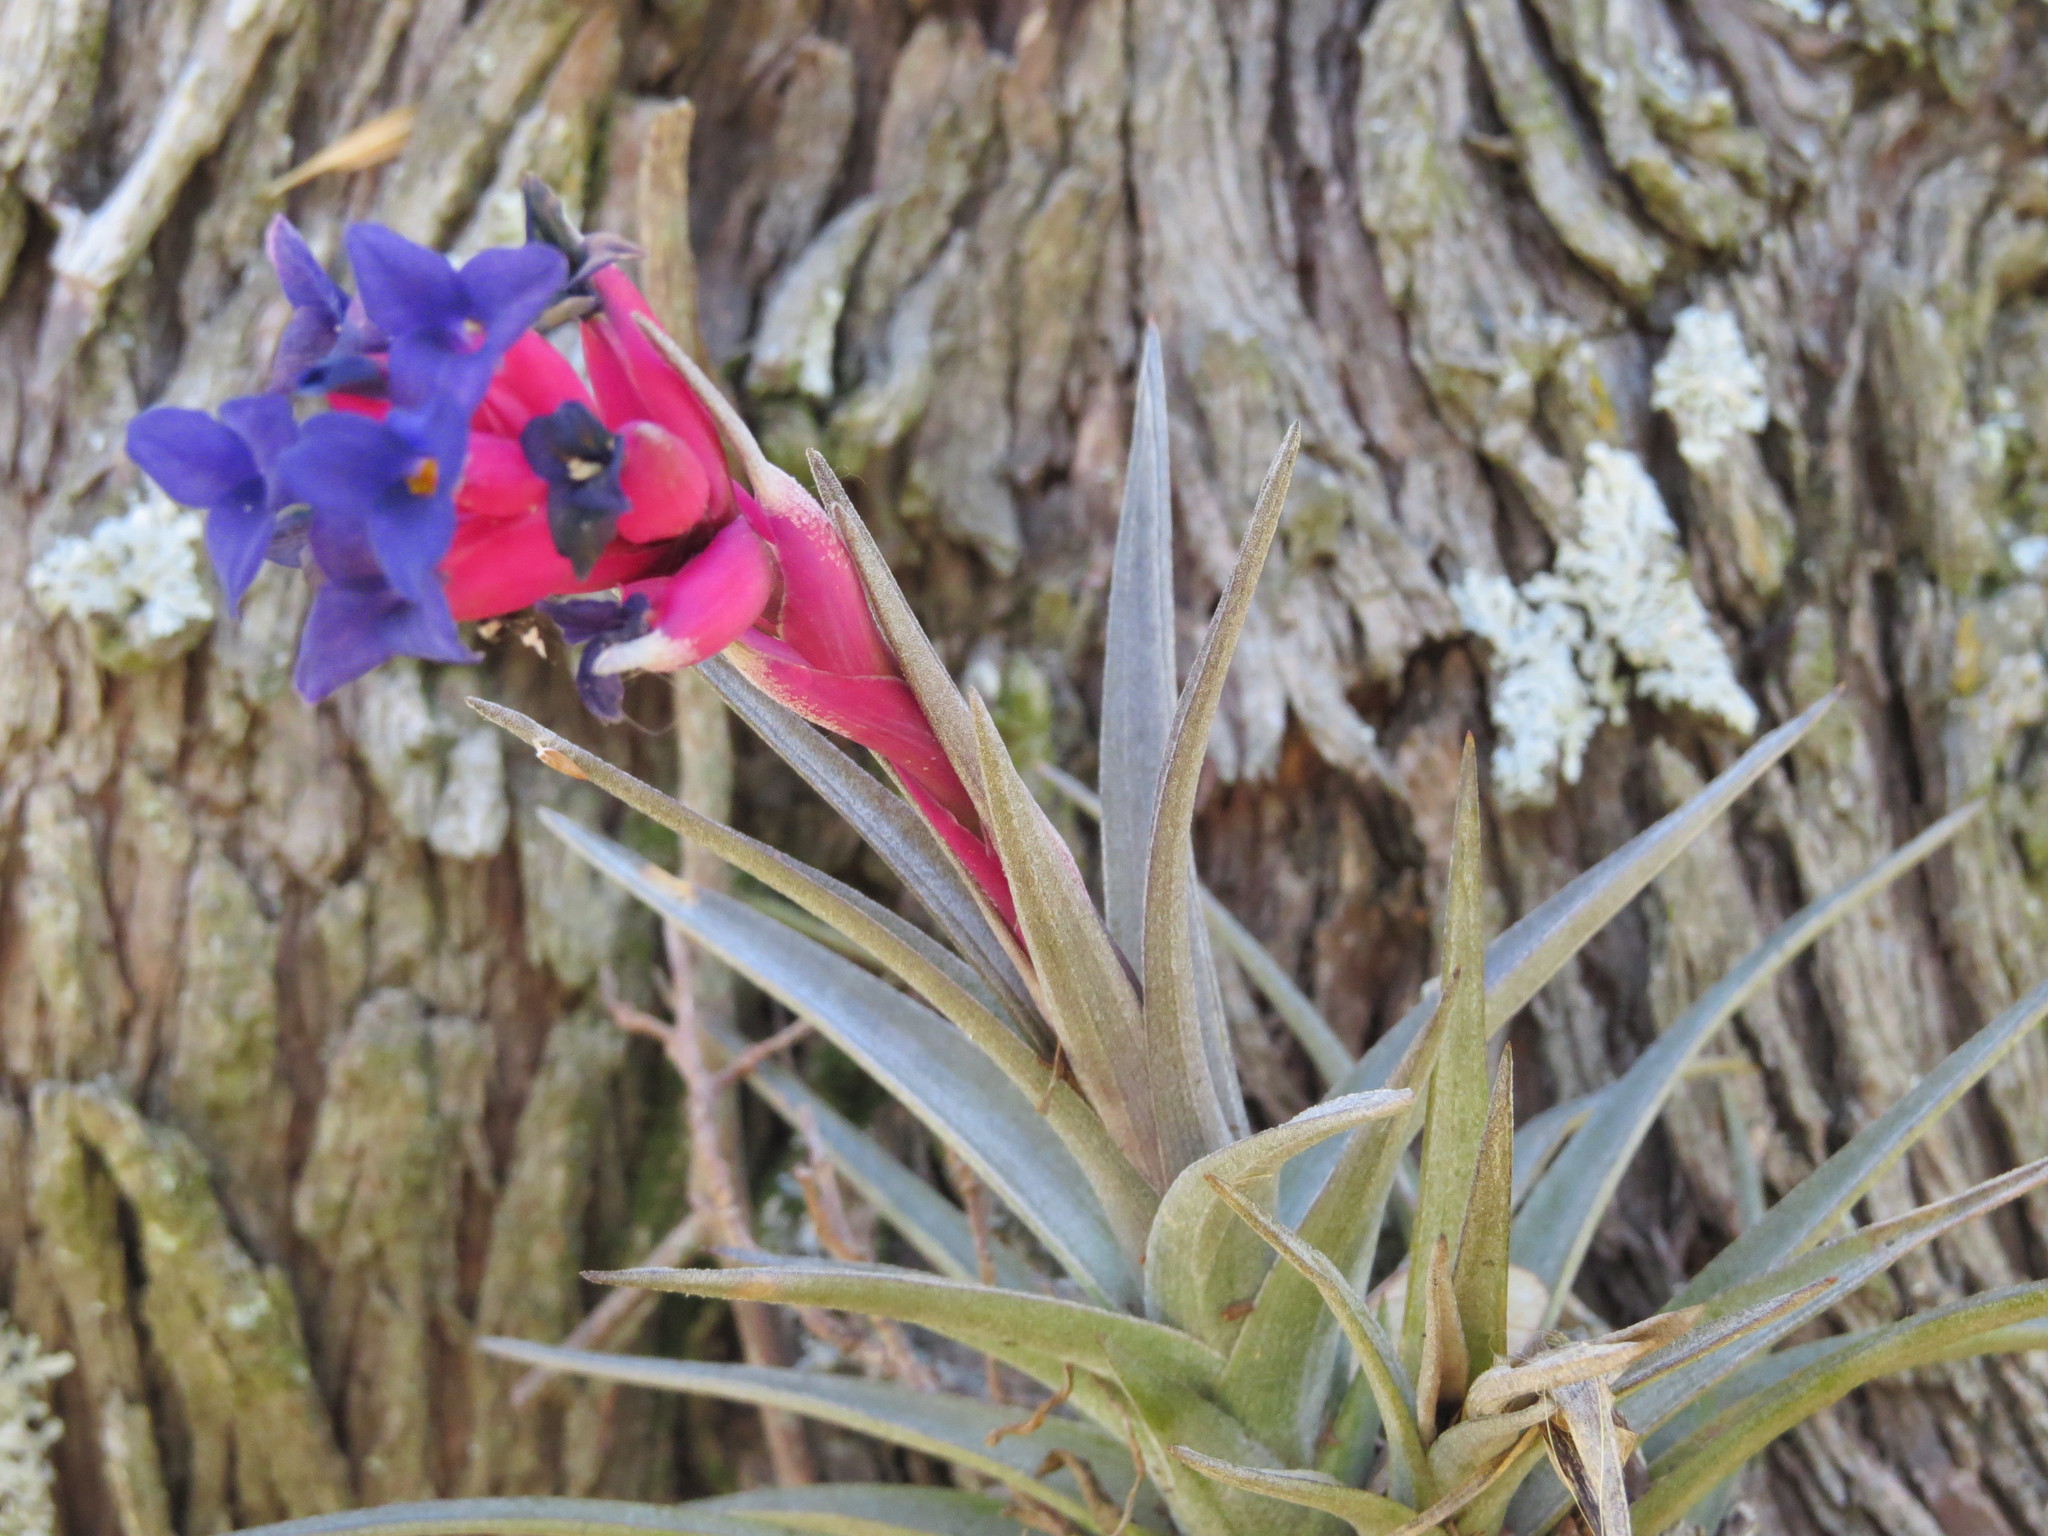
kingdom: Plantae
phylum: Tracheophyta
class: Liliopsida
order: Poales
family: Bromeliaceae
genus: Tillandsia
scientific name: Tillandsia aeranthos
